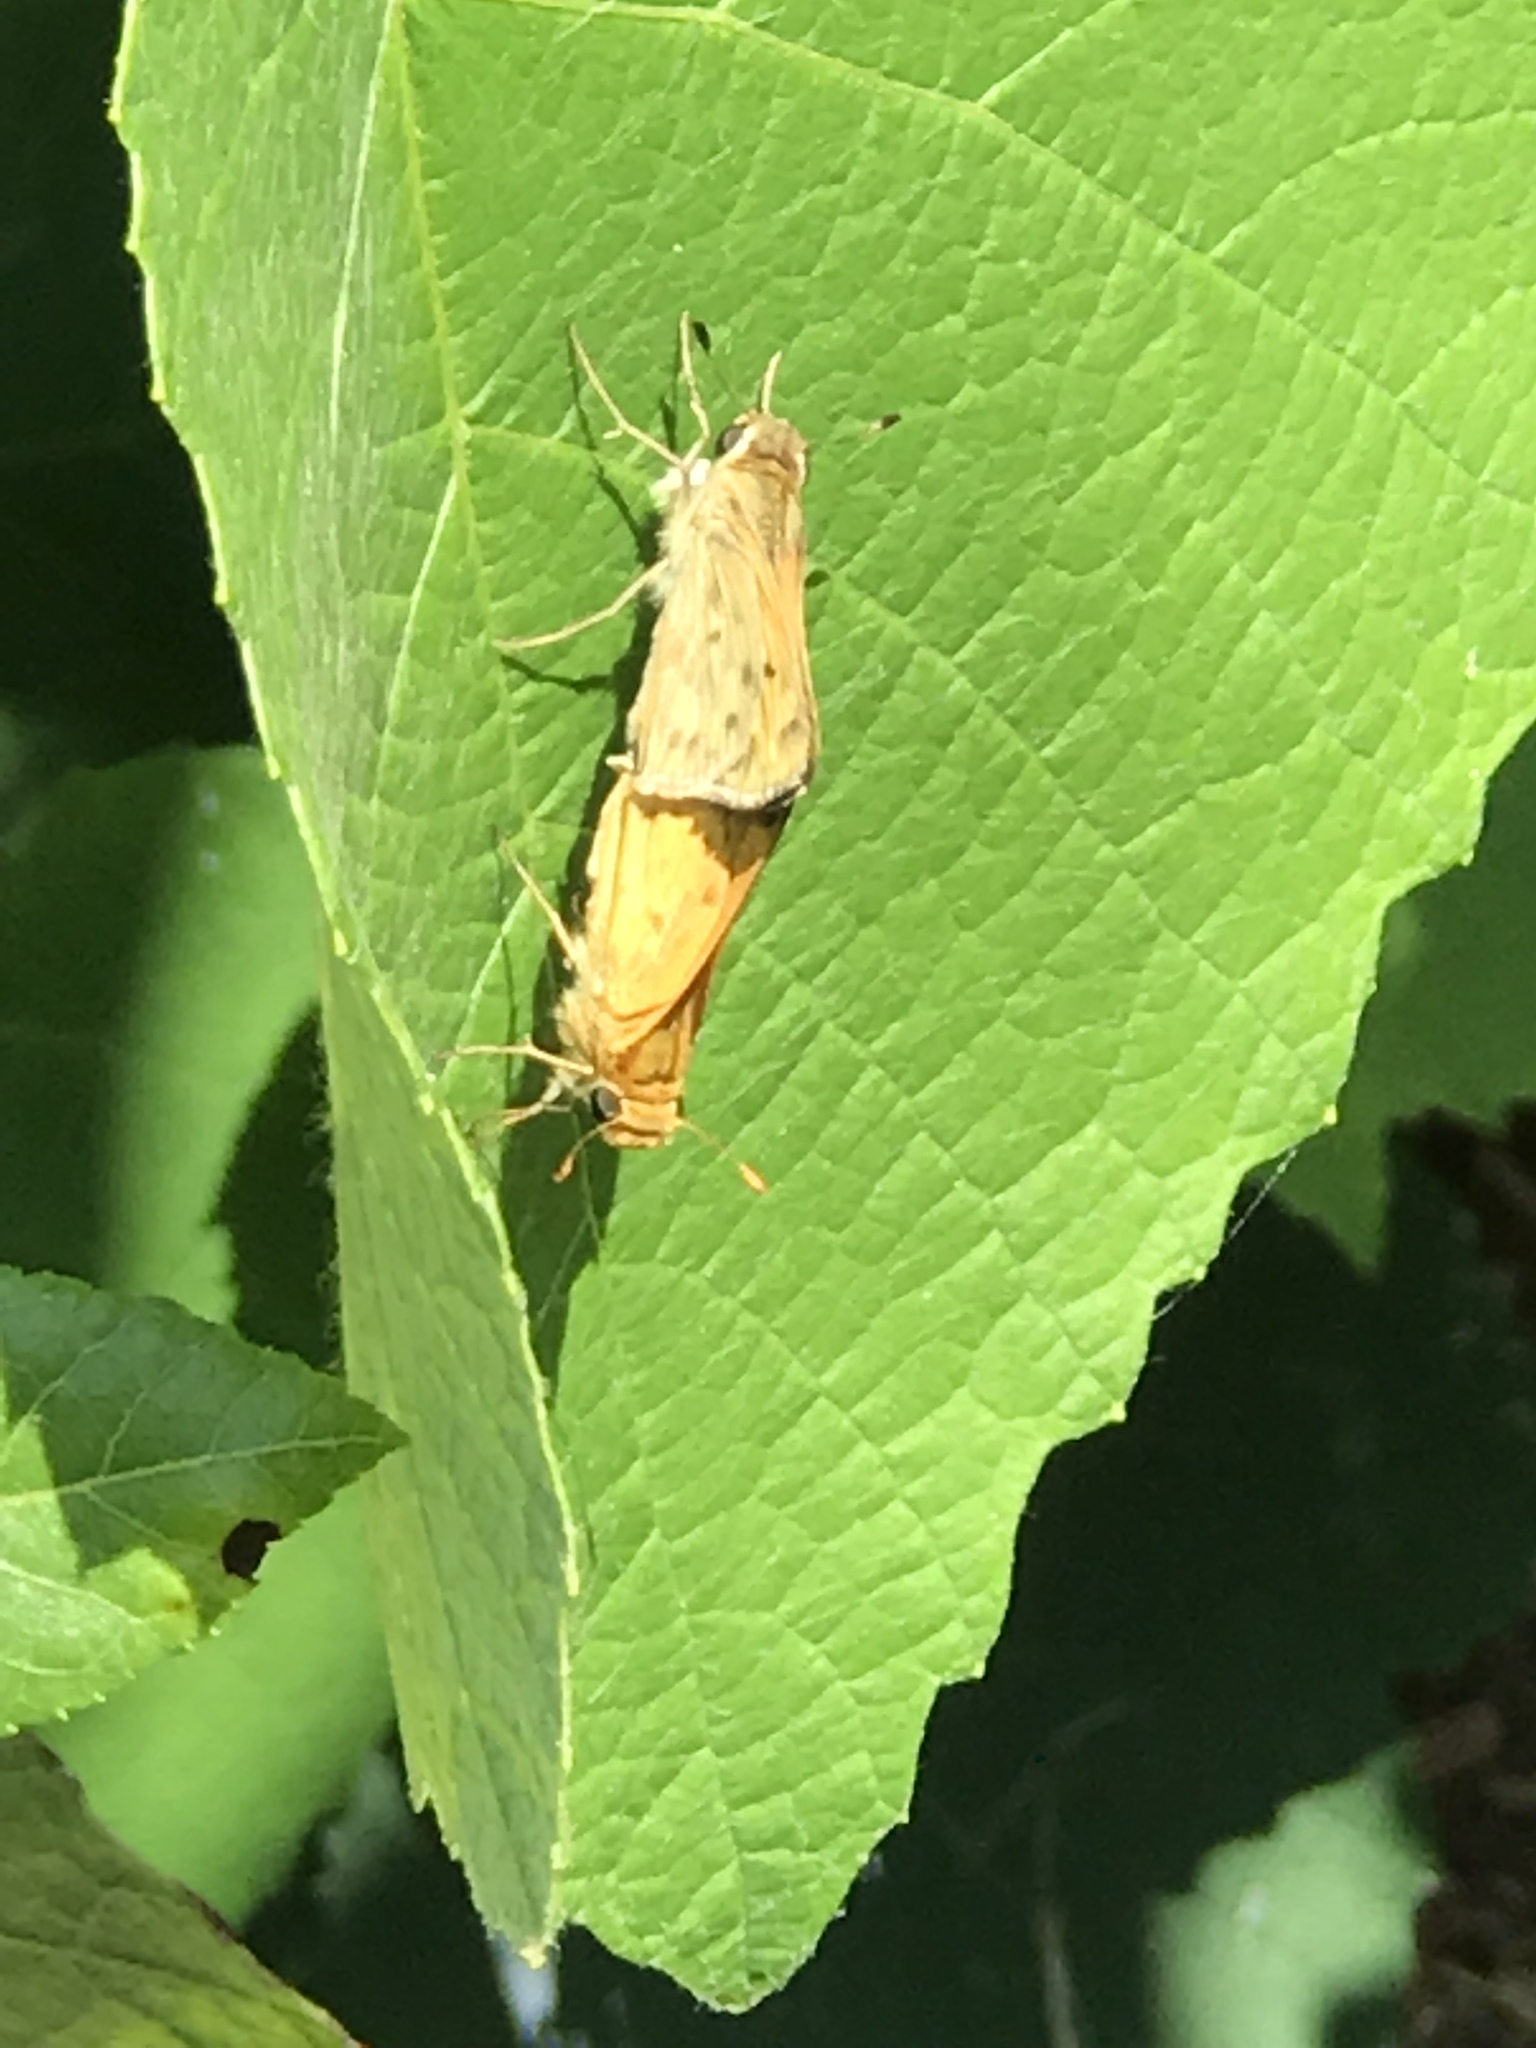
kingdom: Animalia
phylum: Arthropoda
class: Insecta
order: Lepidoptera
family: Hesperiidae
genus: Hylephila
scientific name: Hylephila phyleus
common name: Fiery skipper
